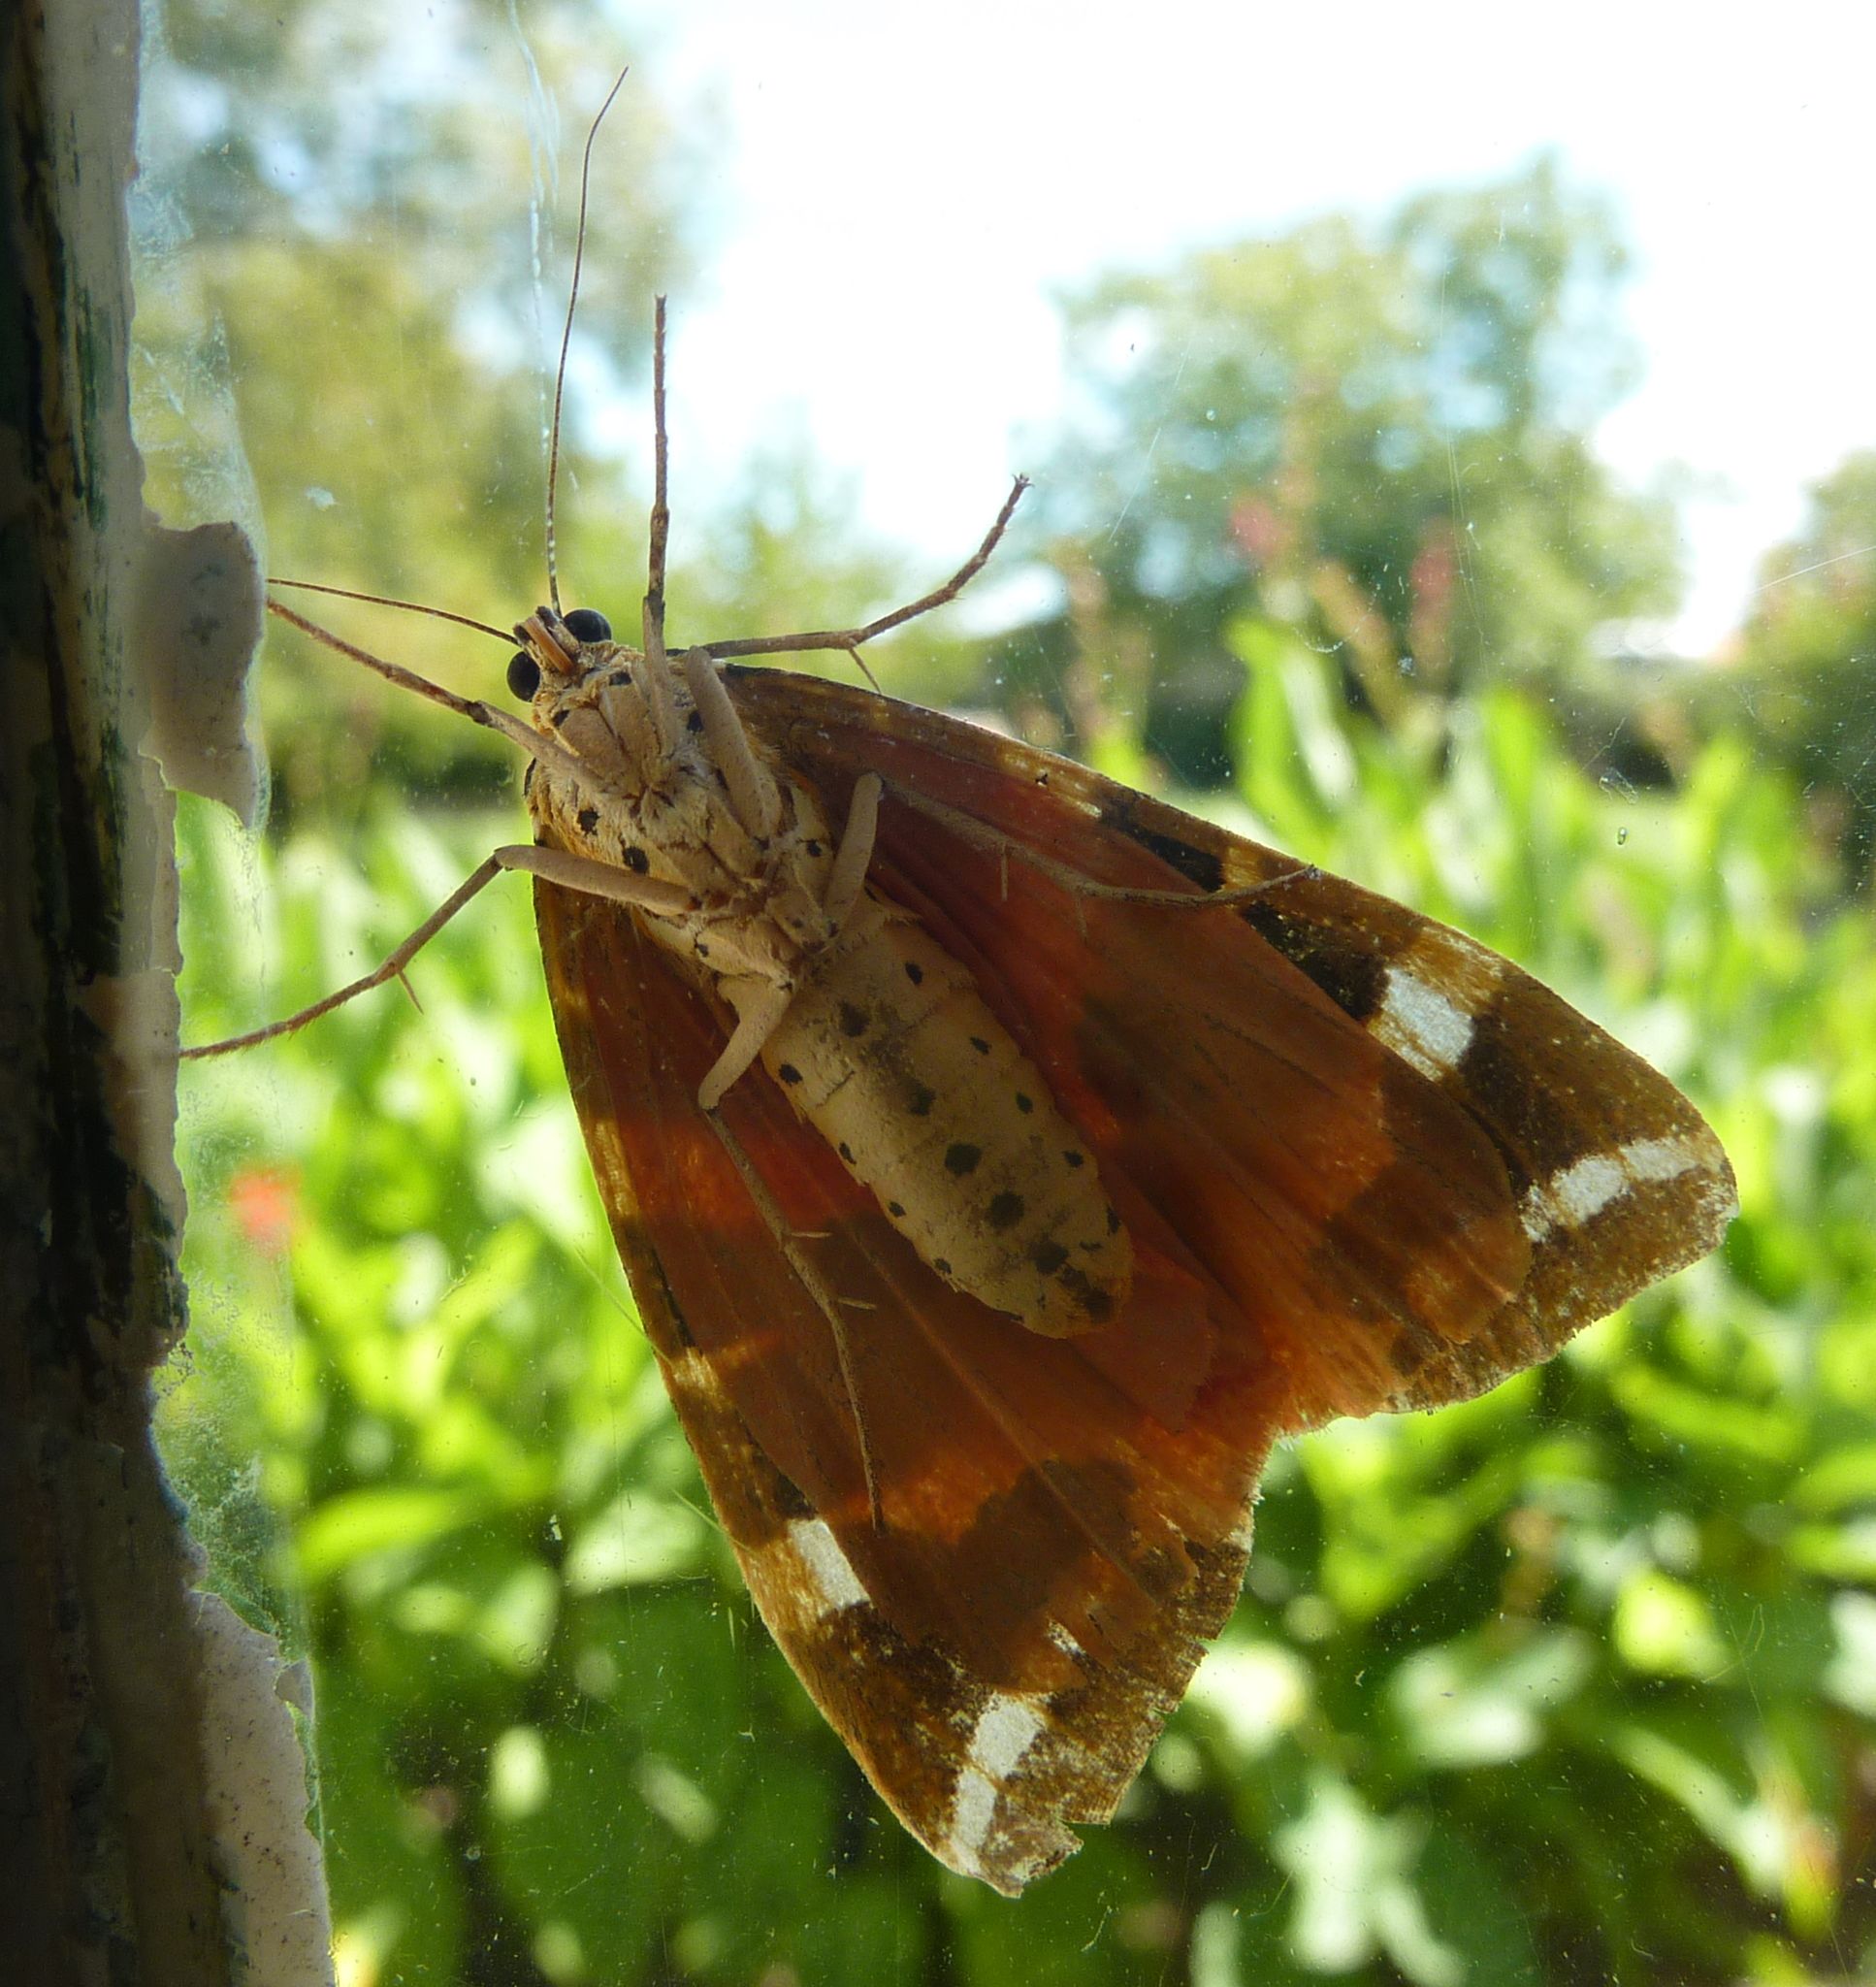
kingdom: Animalia
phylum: Arthropoda
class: Insecta
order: Lepidoptera
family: Erebidae
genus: Euplagia
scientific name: Euplagia quadripunctaria
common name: Jersey tiger
